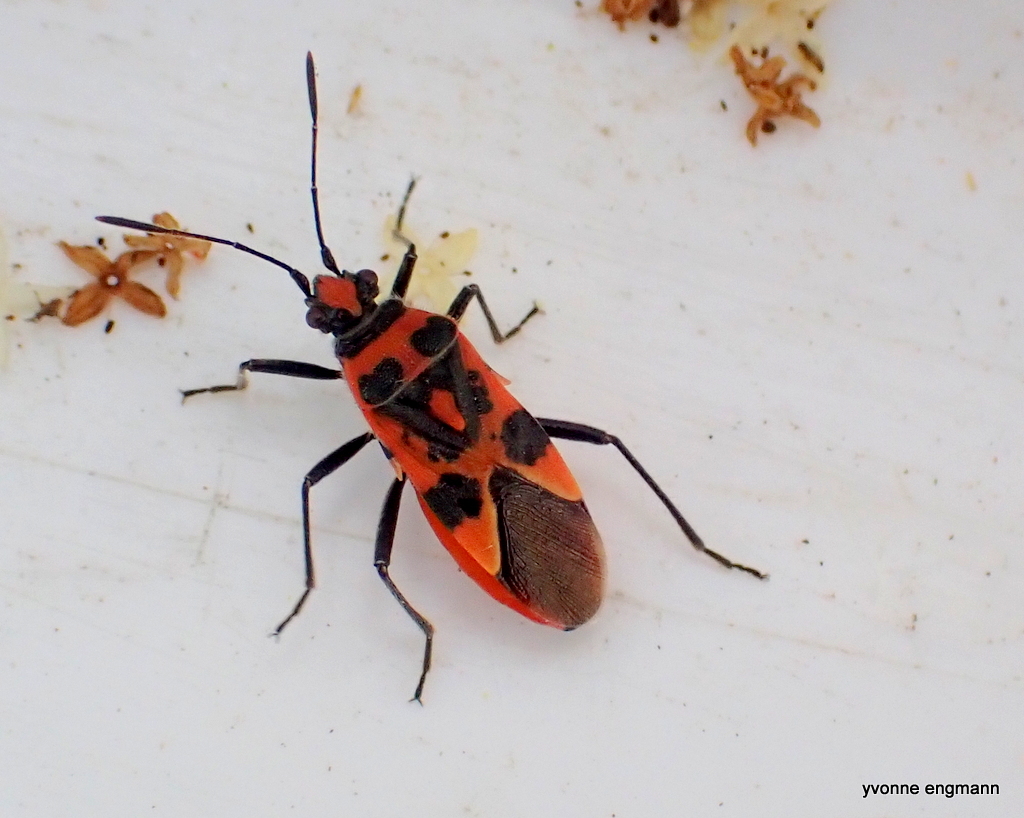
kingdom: Animalia
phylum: Arthropoda
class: Insecta
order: Hemiptera
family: Rhopalidae
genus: Corizus
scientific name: Corizus hyoscyami
